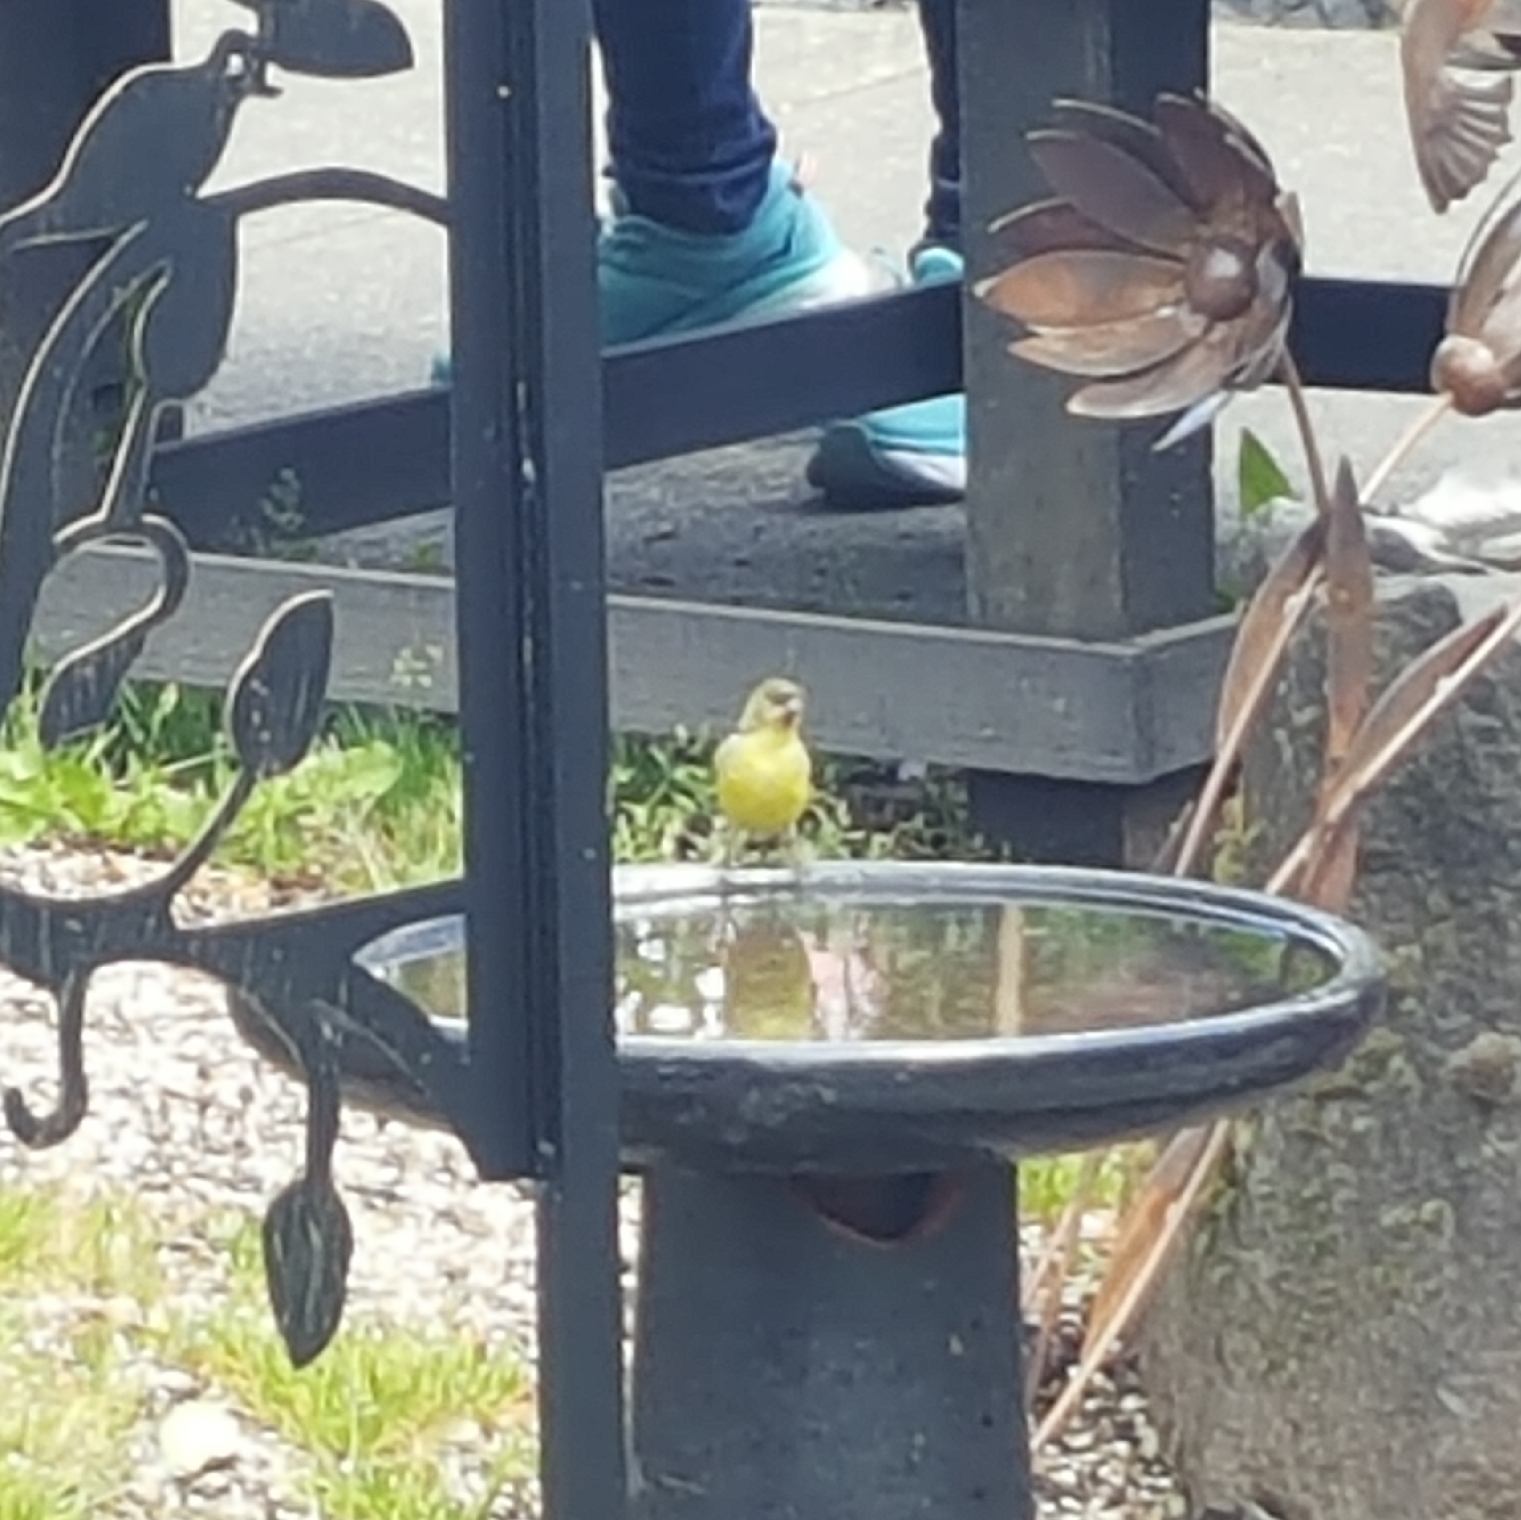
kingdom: Animalia
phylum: Chordata
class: Aves
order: Passeriformes
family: Fringillidae
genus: Spinus
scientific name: Spinus tristis
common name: American goldfinch
